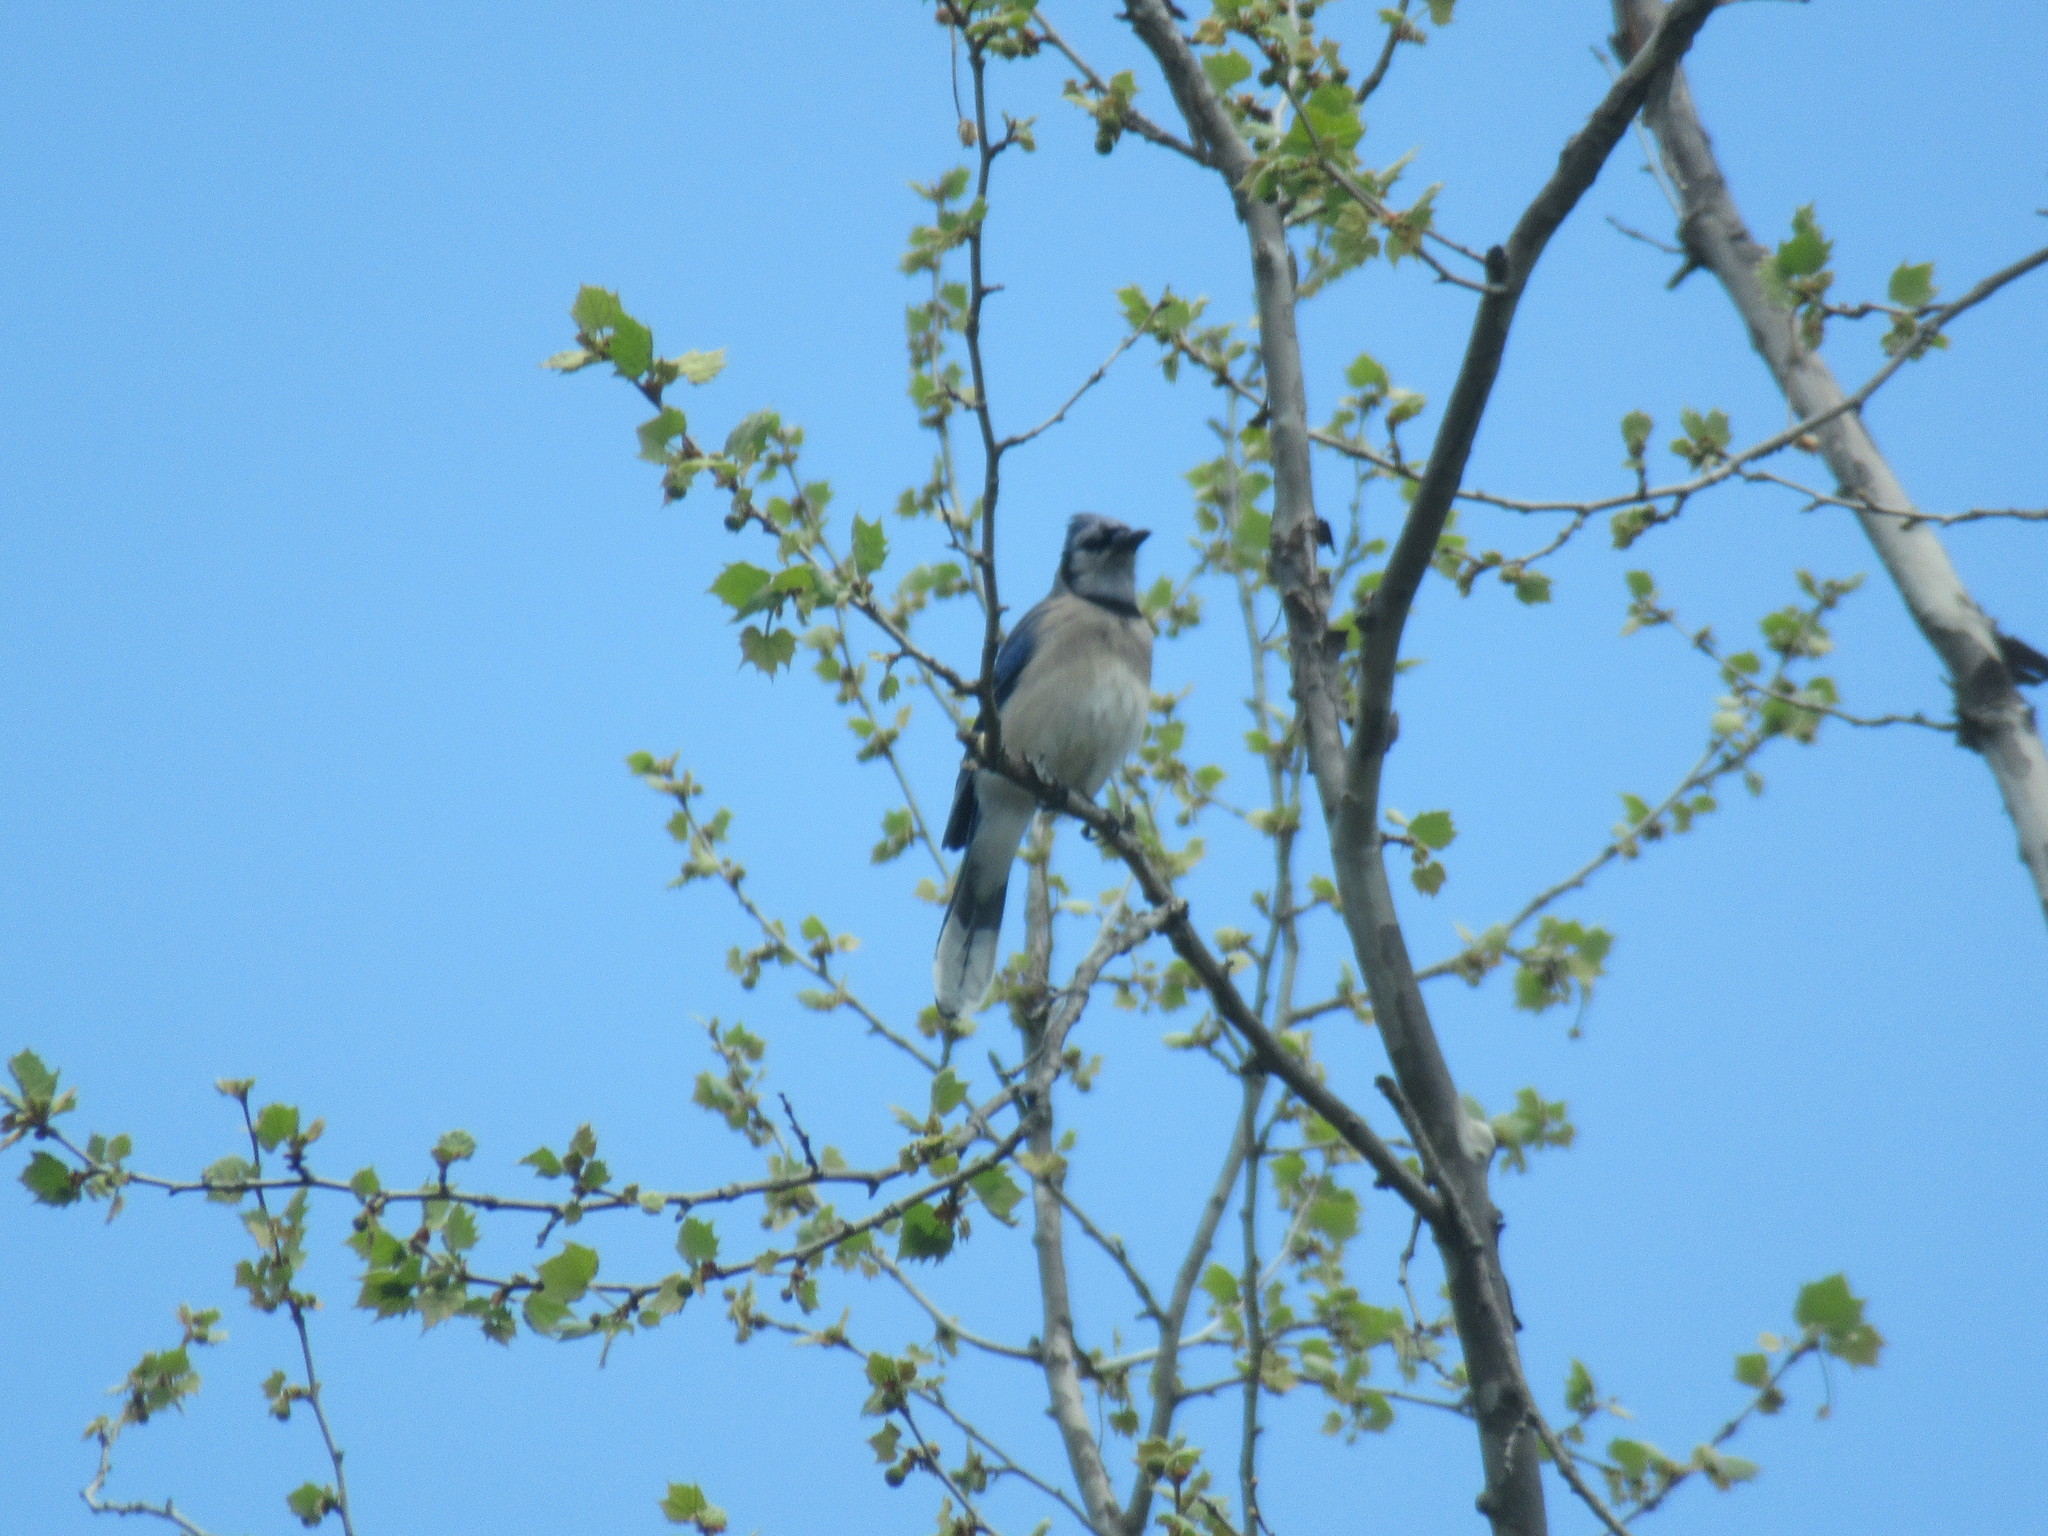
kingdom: Animalia
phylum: Chordata
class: Aves
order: Passeriformes
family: Corvidae
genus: Cyanocitta
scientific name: Cyanocitta cristata
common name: Blue jay
